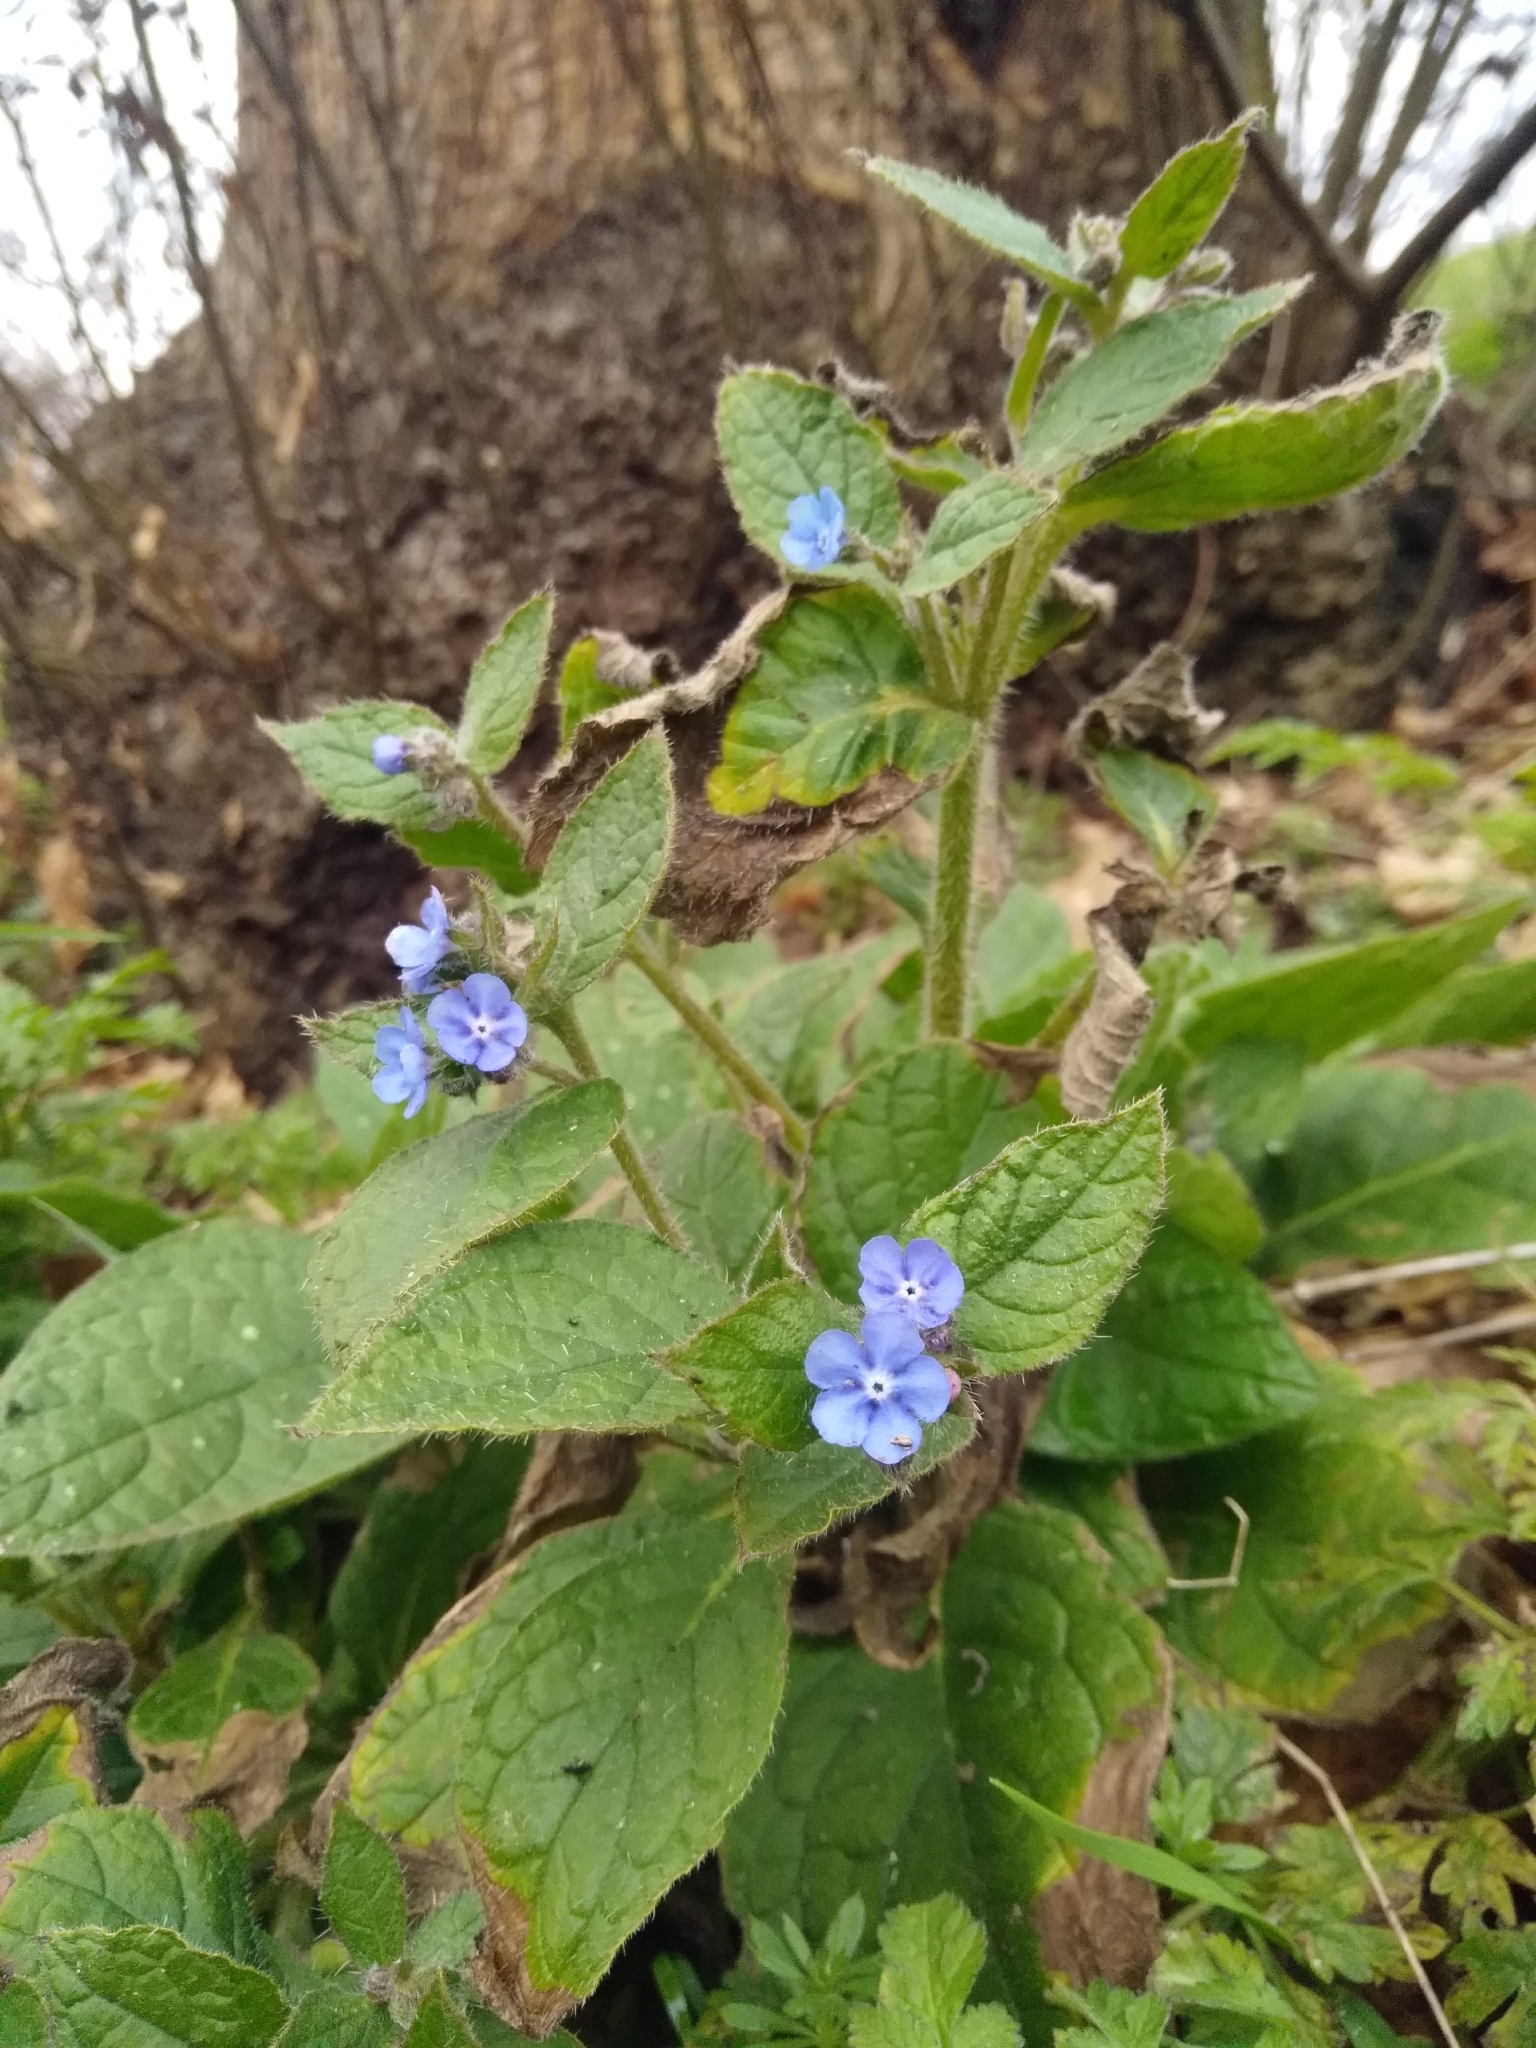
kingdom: Plantae
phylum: Tracheophyta
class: Magnoliopsida
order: Boraginales
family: Boraginaceae
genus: Pentaglottis
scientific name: Pentaglottis sempervirens
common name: Green alkanet
